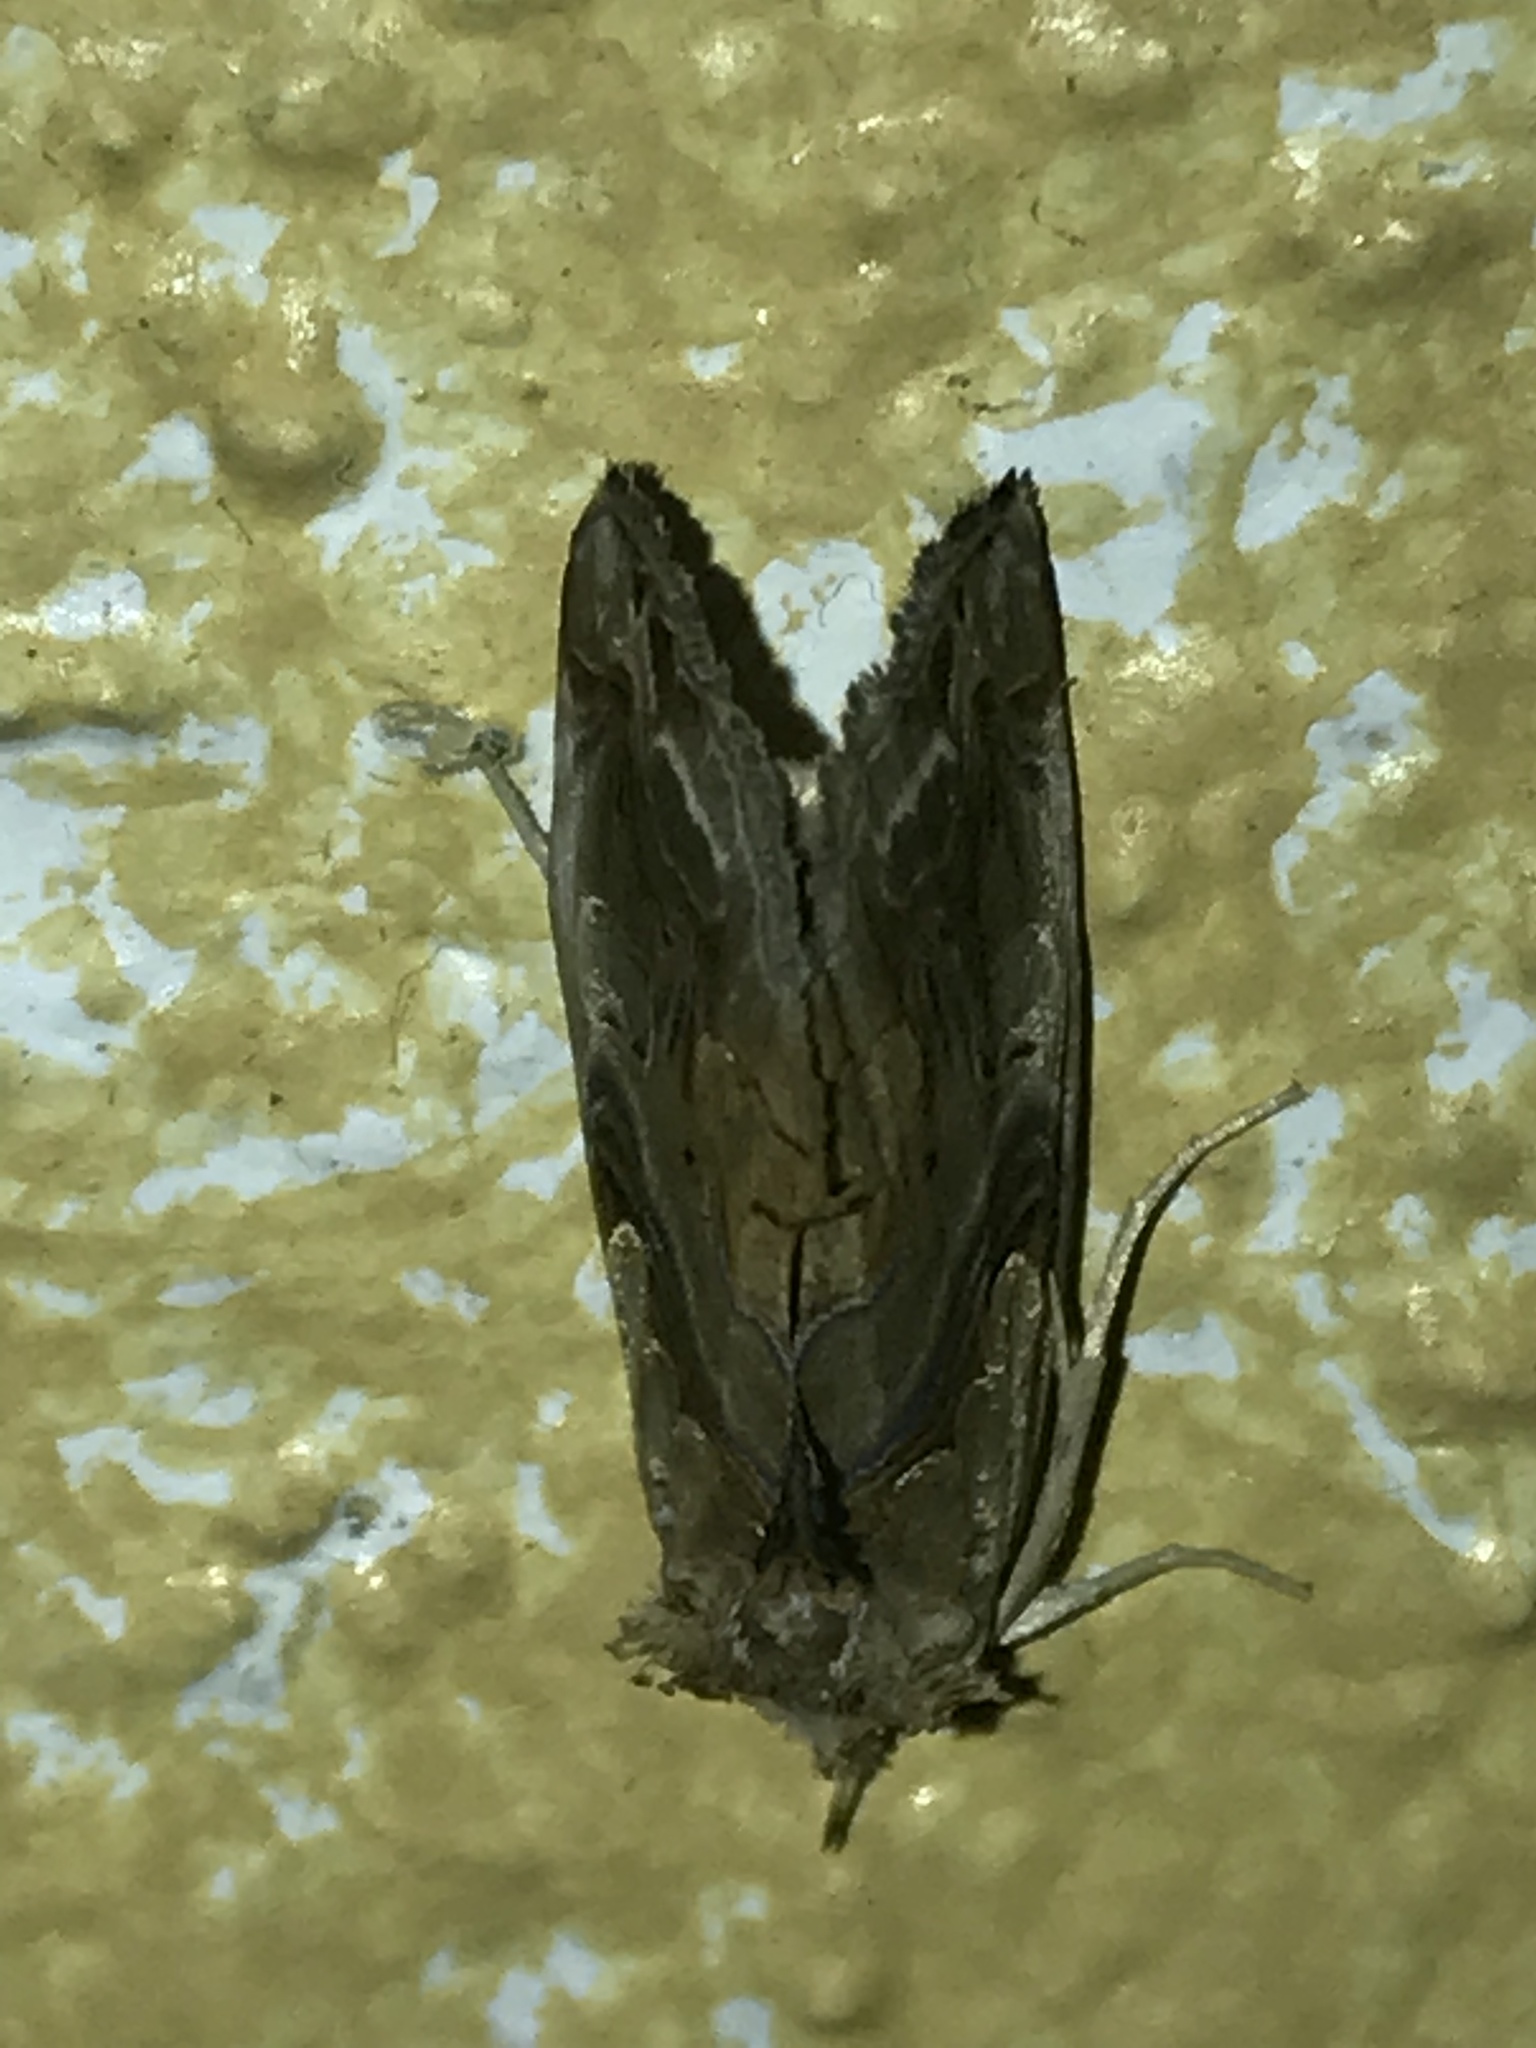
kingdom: Animalia
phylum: Arthropoda
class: Insecta
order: Lepidoptera
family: Erebidae
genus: Plusiodonta
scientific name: Plusiodonta compressipalpis
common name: Moonseed moth
